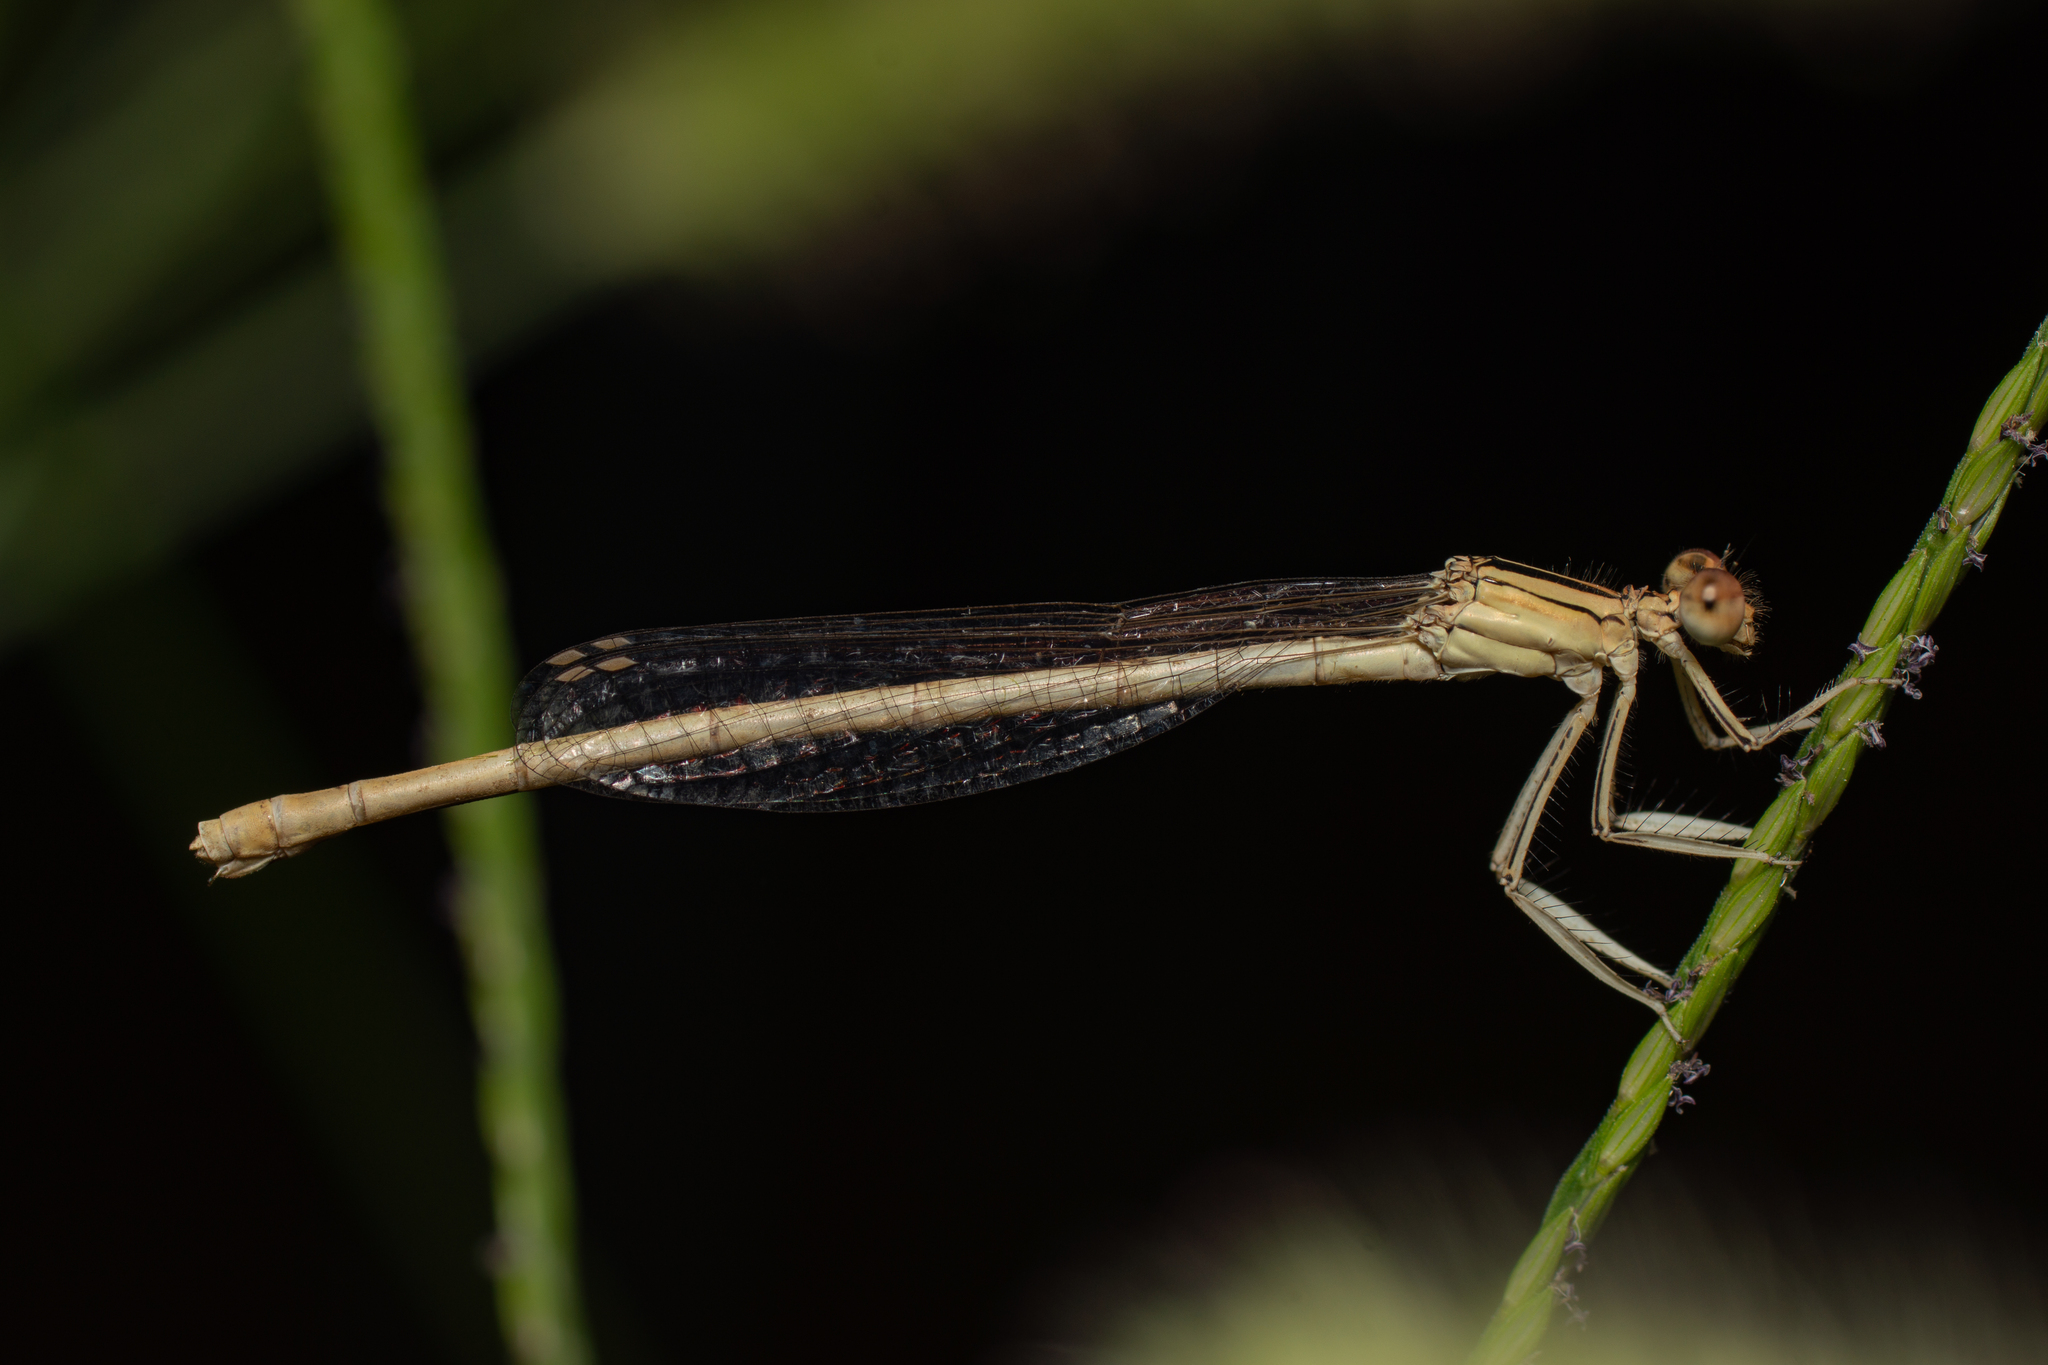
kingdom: Animalia
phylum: Arthropoda
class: Insecta
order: Odonata
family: Platycnemididae
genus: Platycnemis
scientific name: Platycnemis latipes
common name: White featherleg
